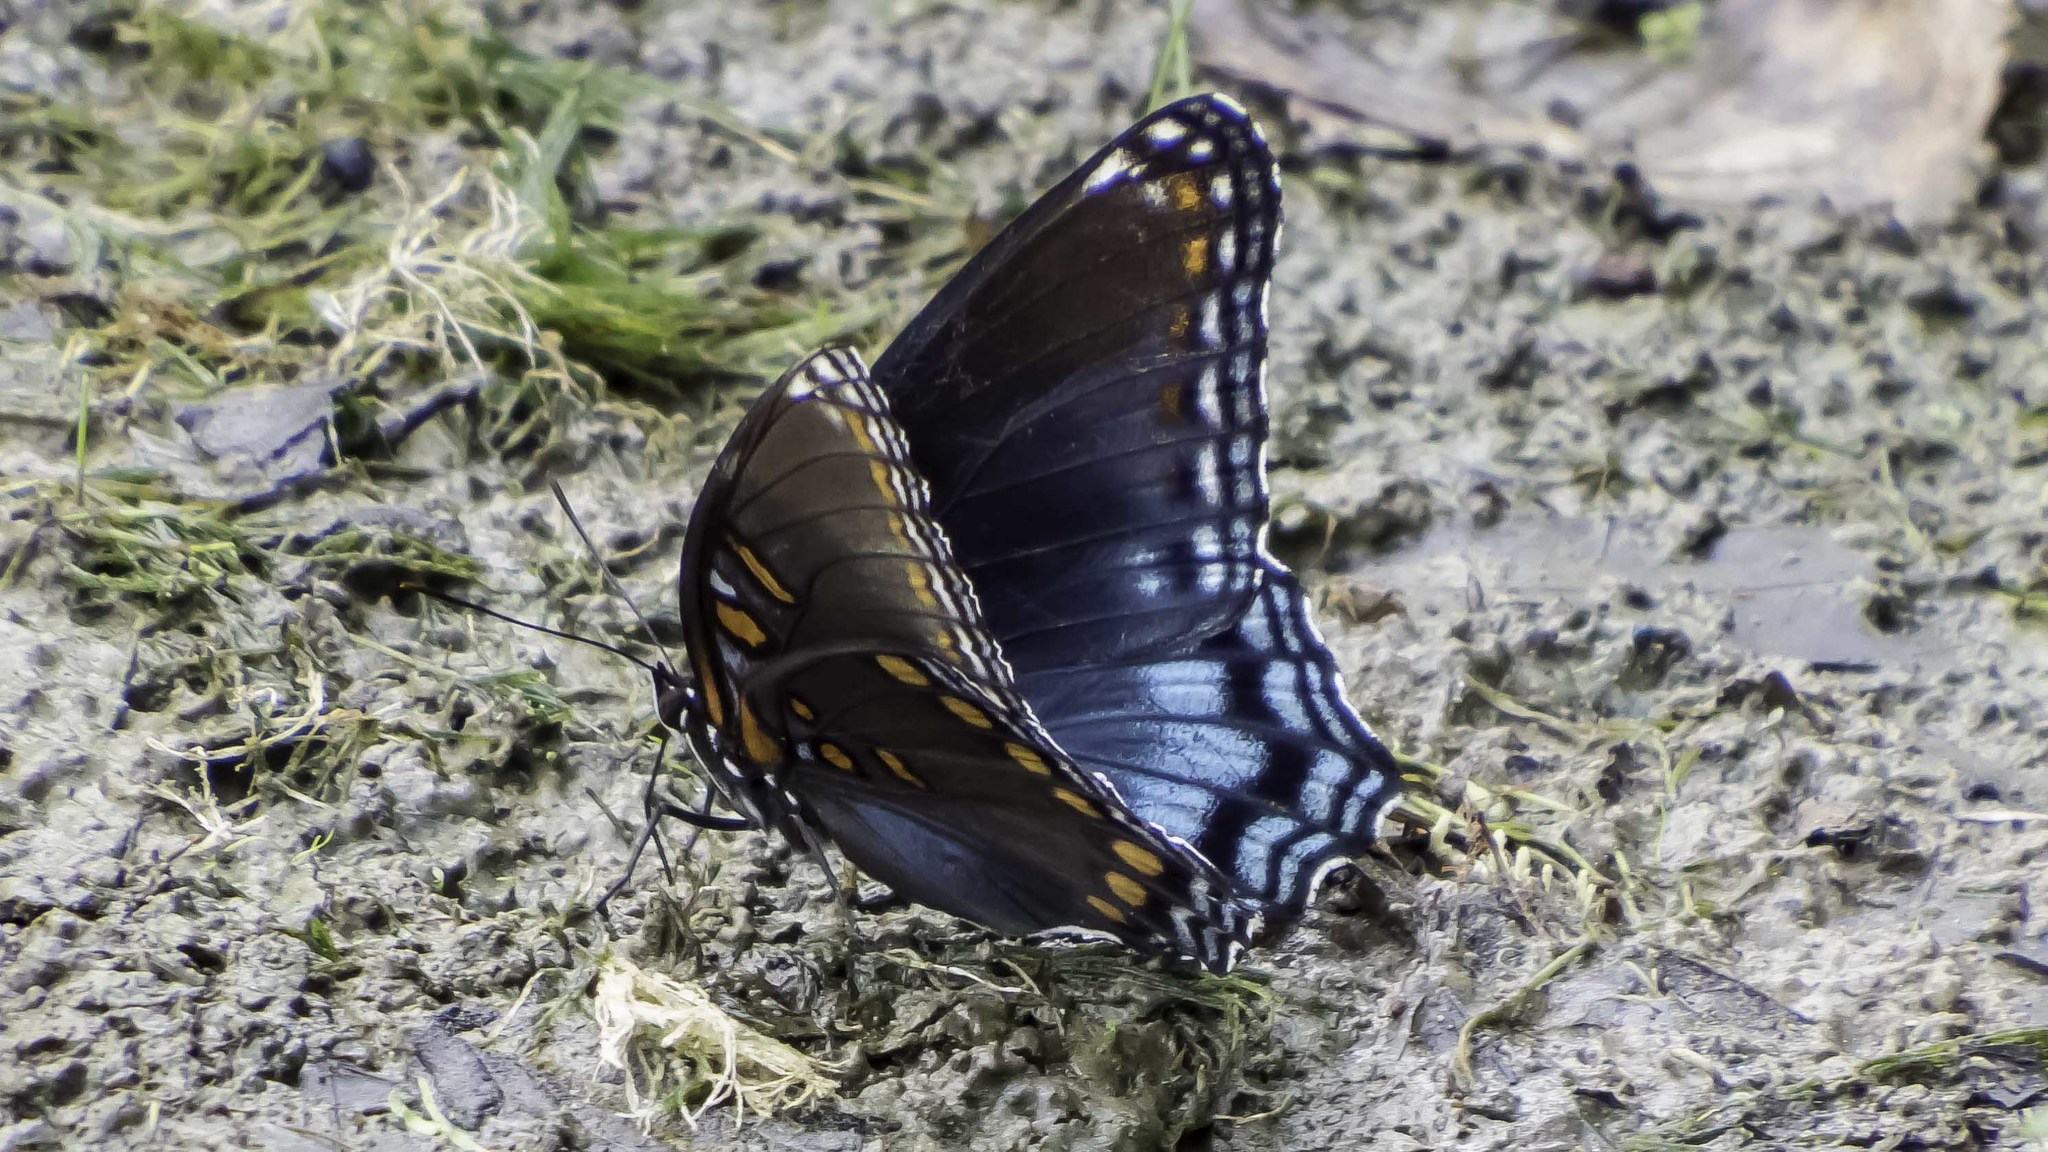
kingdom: Animalia
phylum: Arthropoda
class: Insecta
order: Lepidoptera
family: Nymphalidae
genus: Limenitis
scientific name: Limenitis astyanax
